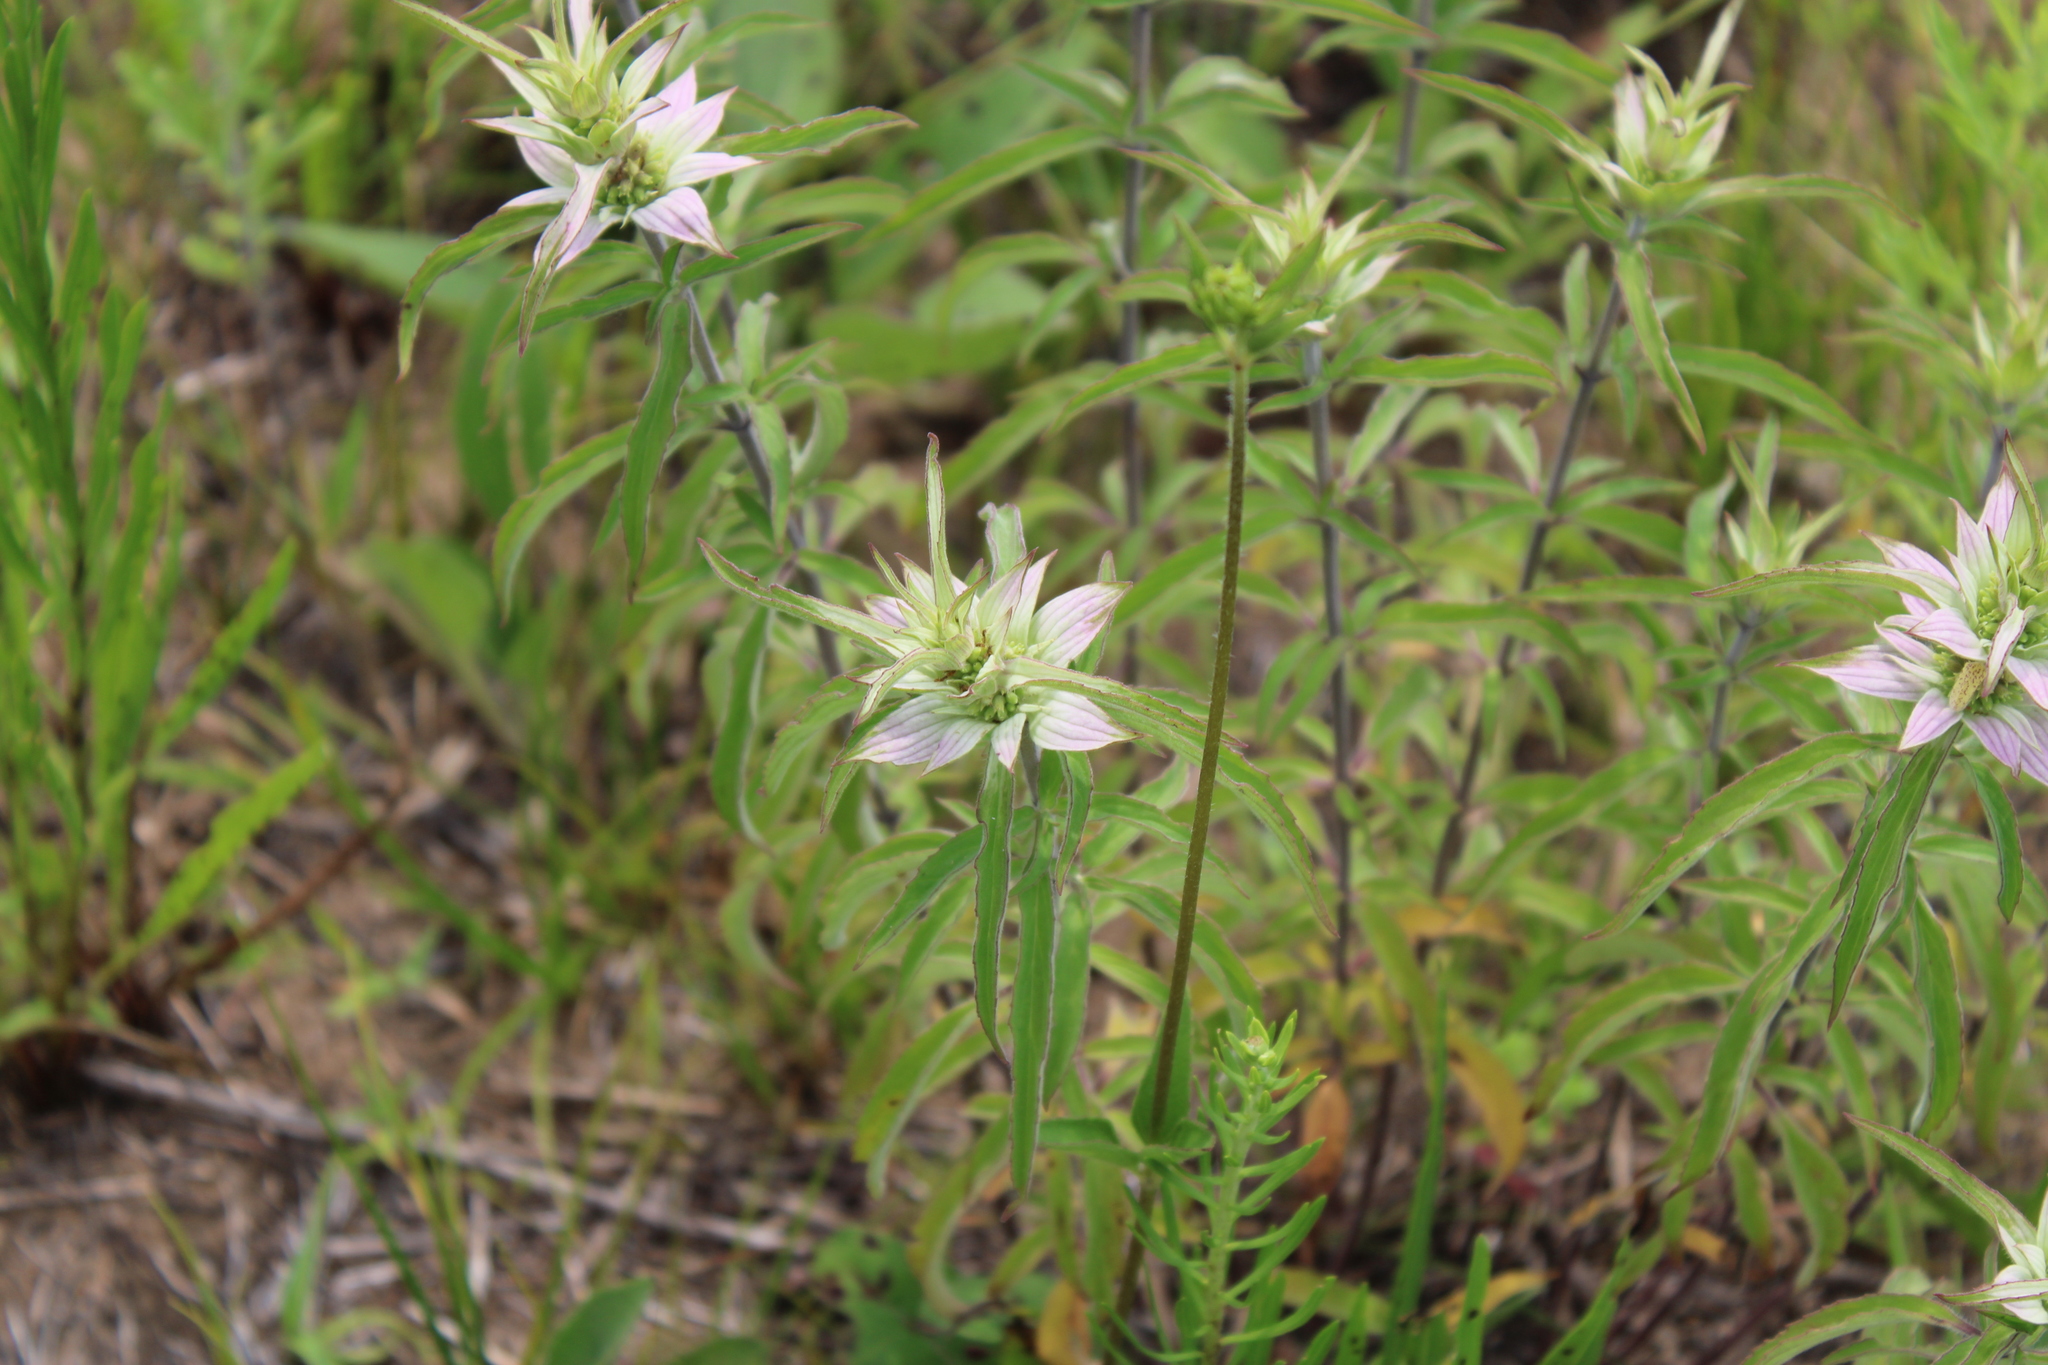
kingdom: Plantae
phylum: Tracheophyta
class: Magnoliopsida
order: Lamiales
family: Lamiaceae
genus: Monarda
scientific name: Monarda punctata
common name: Dotted monarda
